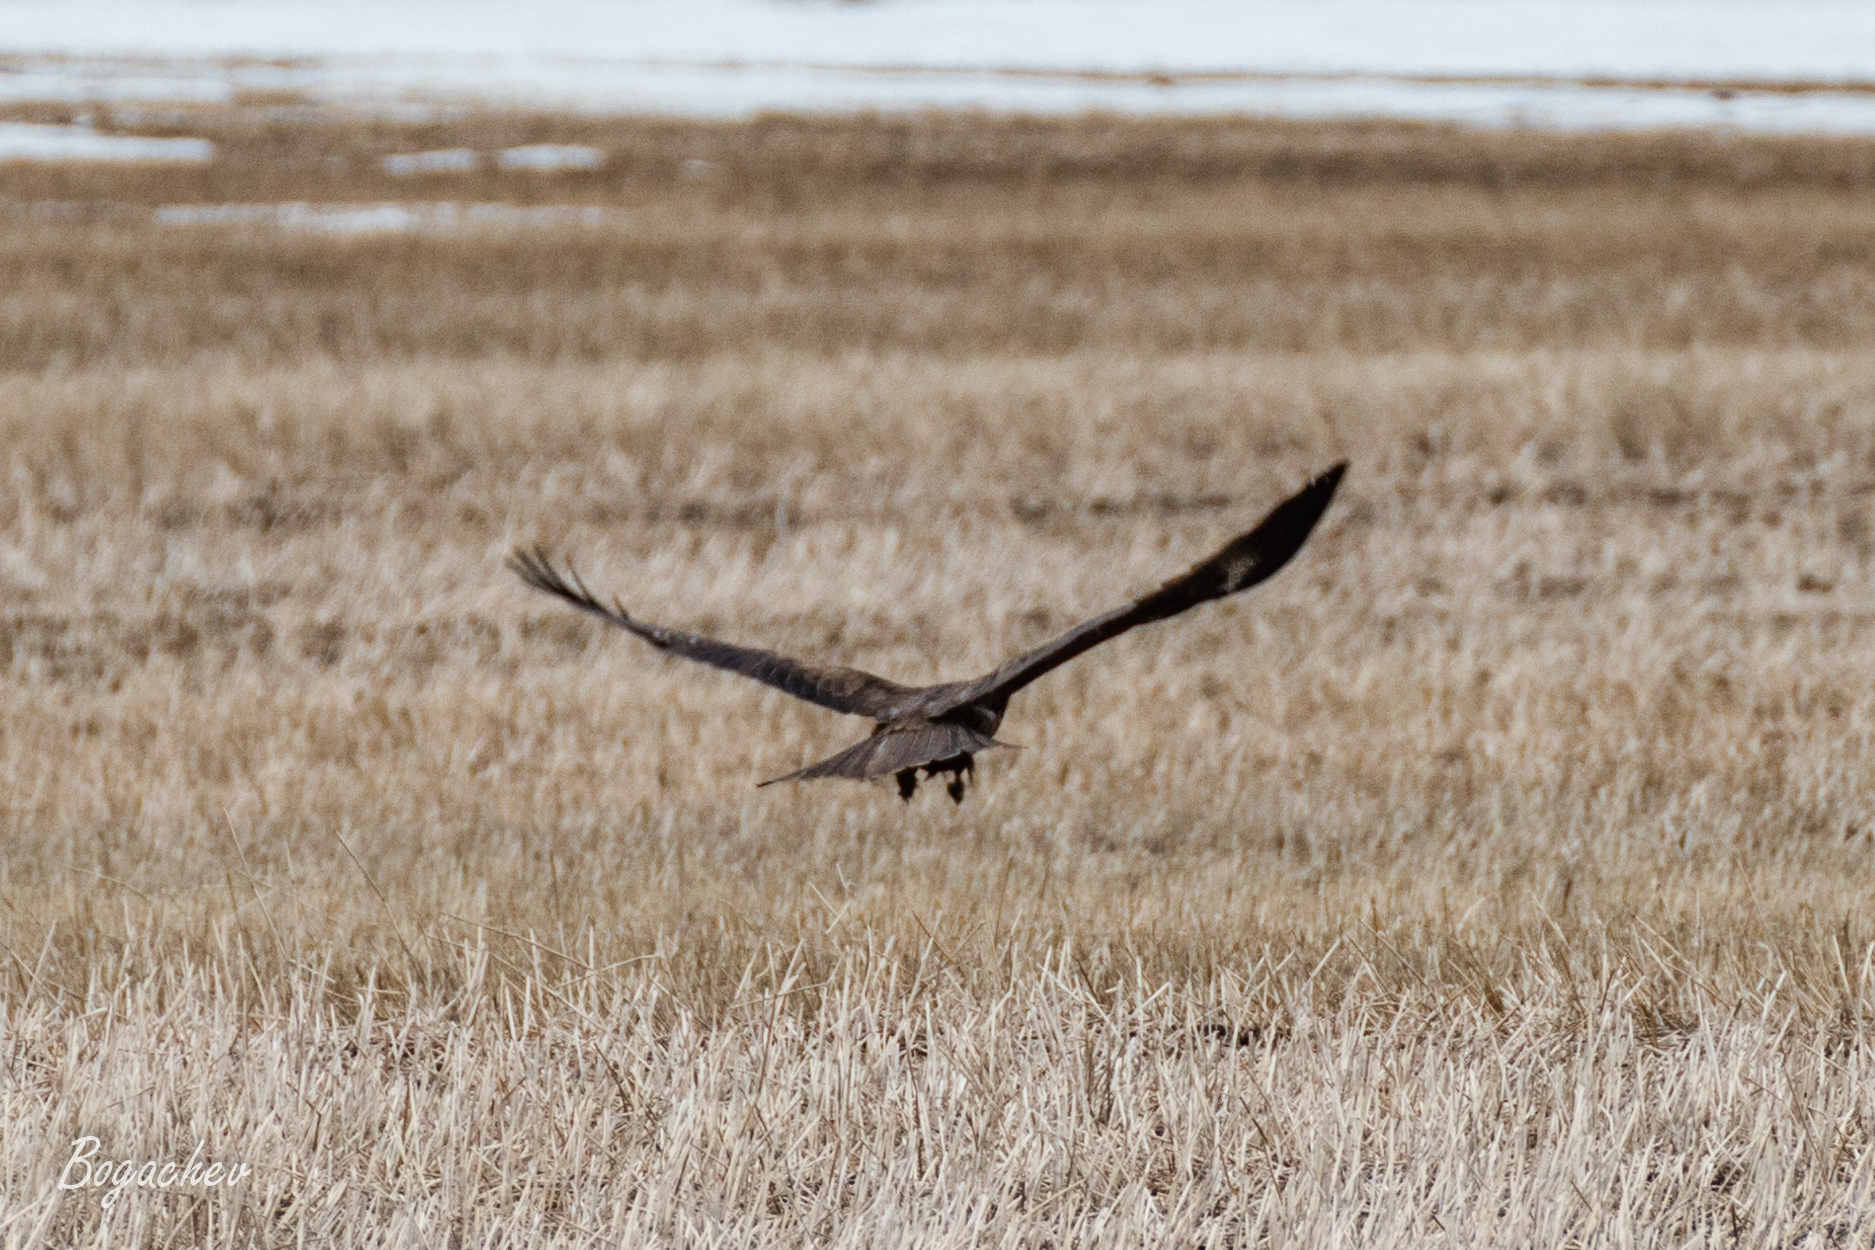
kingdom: Animalia
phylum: Chordata
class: Aves
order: Accipitriformes
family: Accipitridae
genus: Milvus
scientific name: Milvus migrans
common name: Black kite
